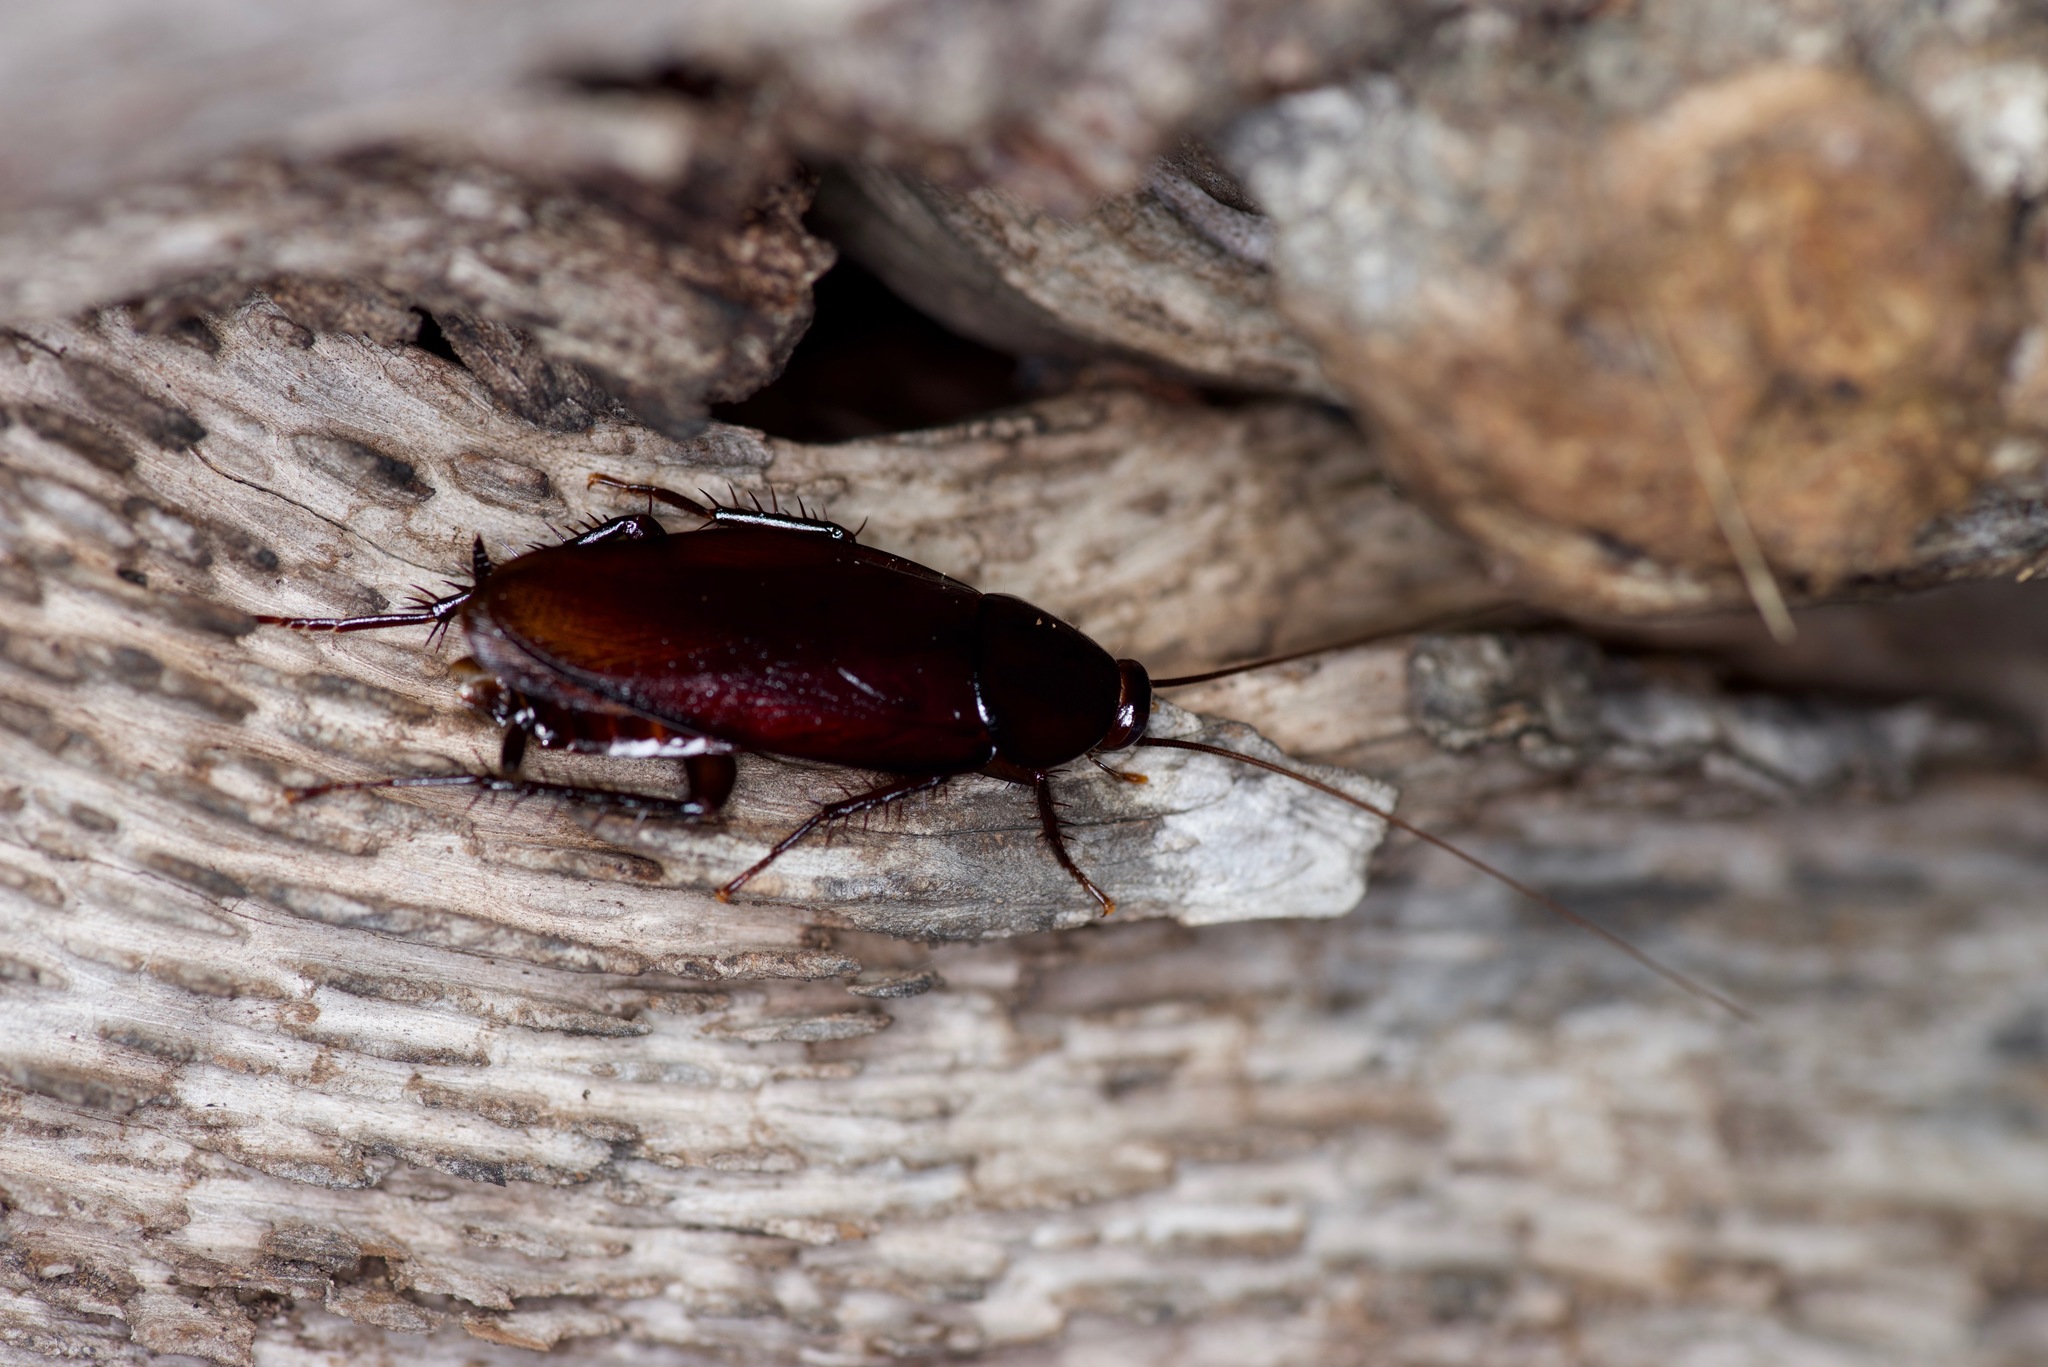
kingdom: Animalia
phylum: Arthropoda
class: Insecta
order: Blattodea
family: Blattidae
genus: Periplaneta
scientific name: Periplaneta fuliginosa
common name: Smokeybrown cockroad
